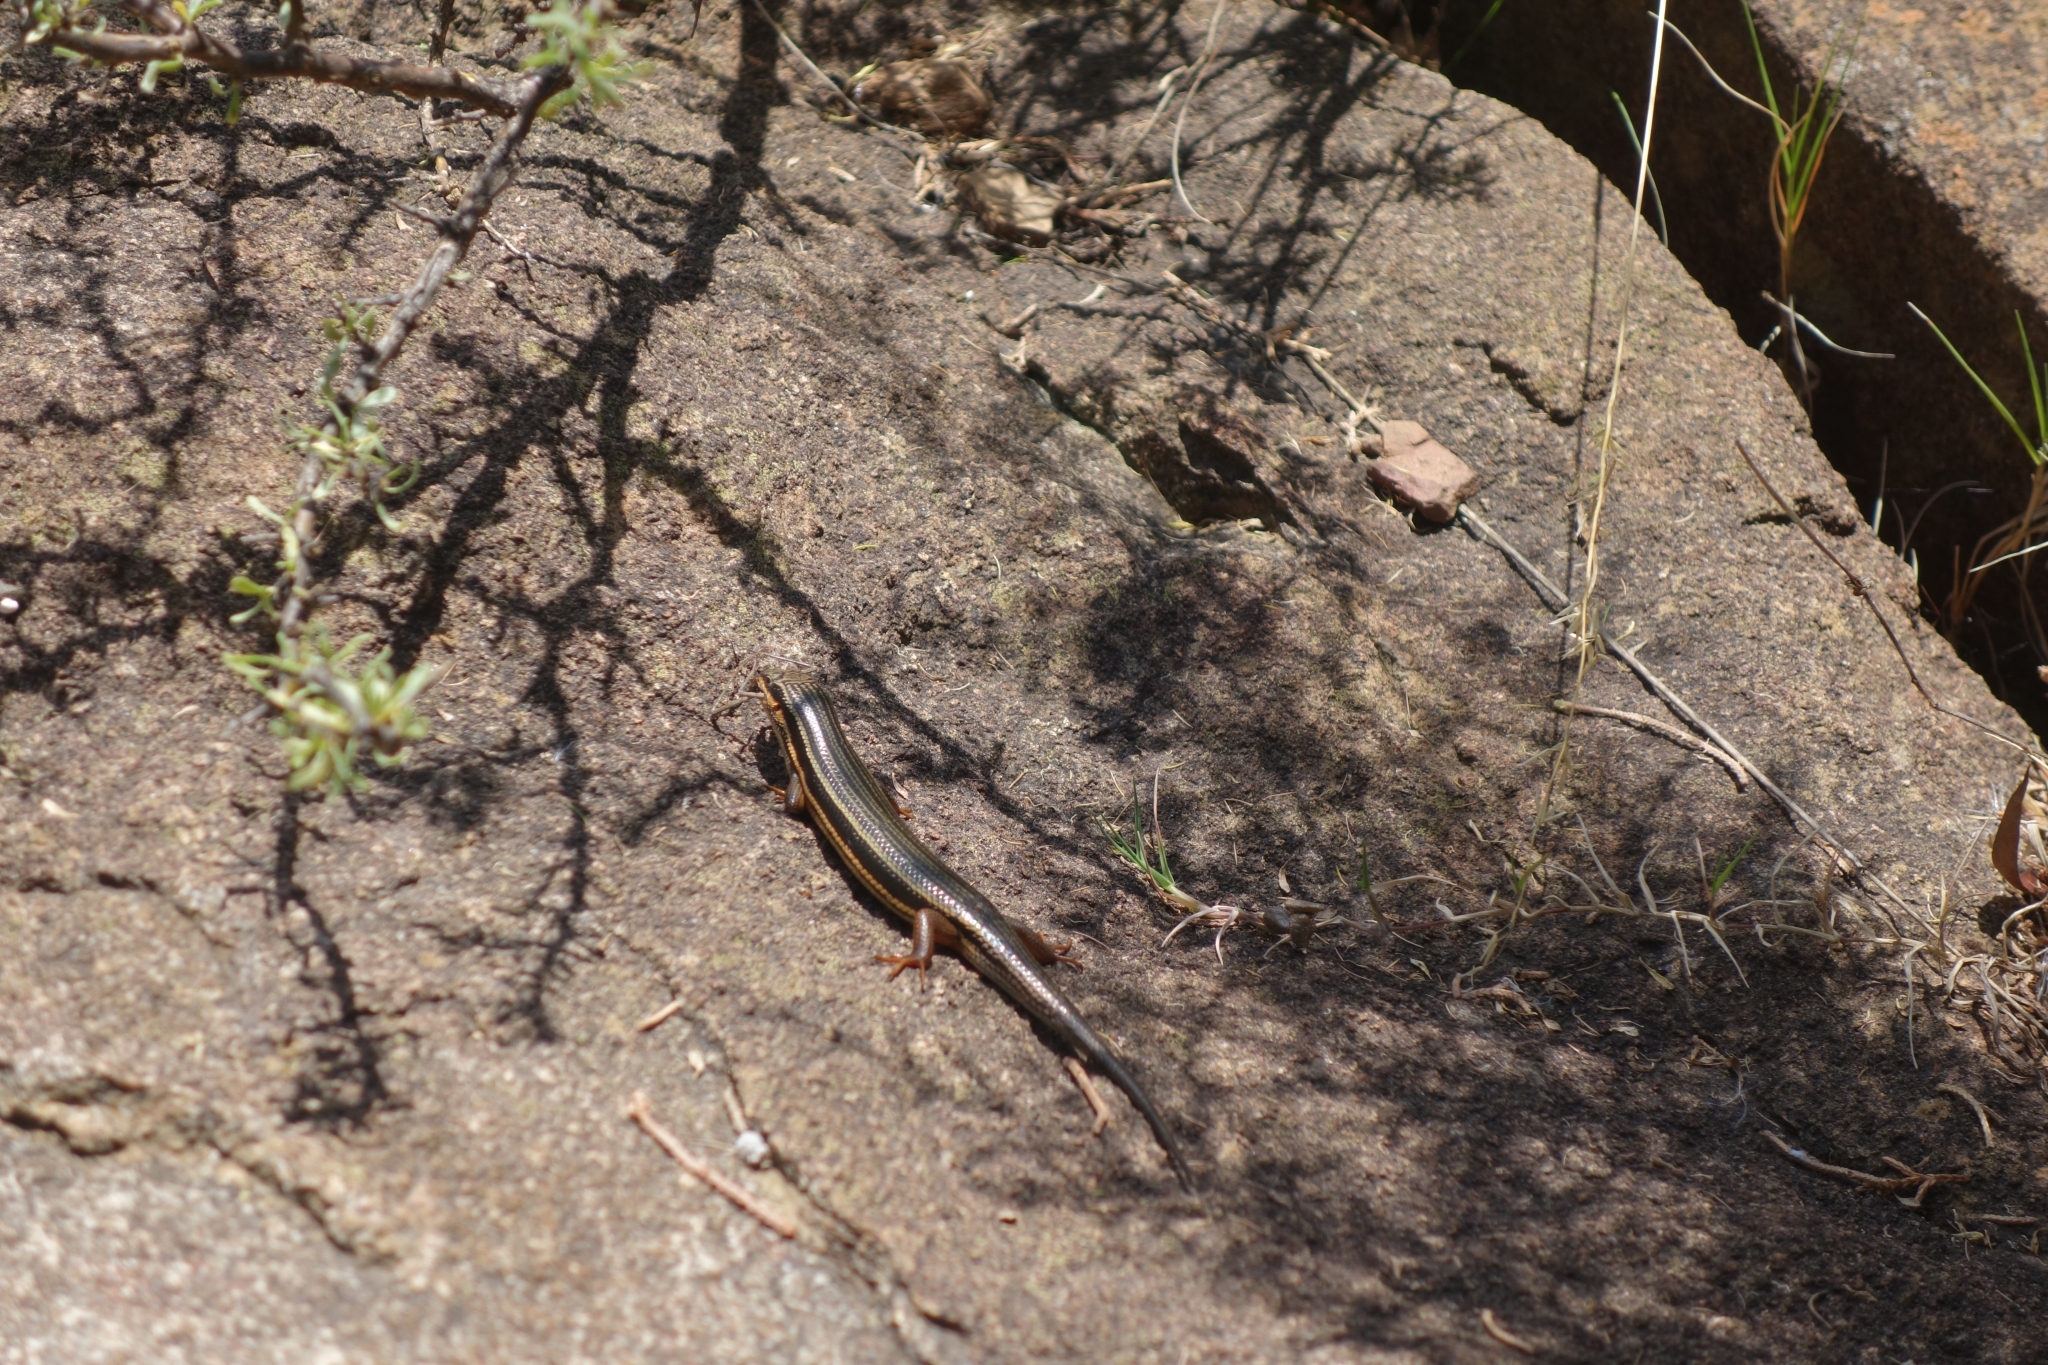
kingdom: Animalia
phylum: Chordata
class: Squamata
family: Scincidae
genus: Trachylepis
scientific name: Trachylepis homalocephala
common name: Red-sided skink
